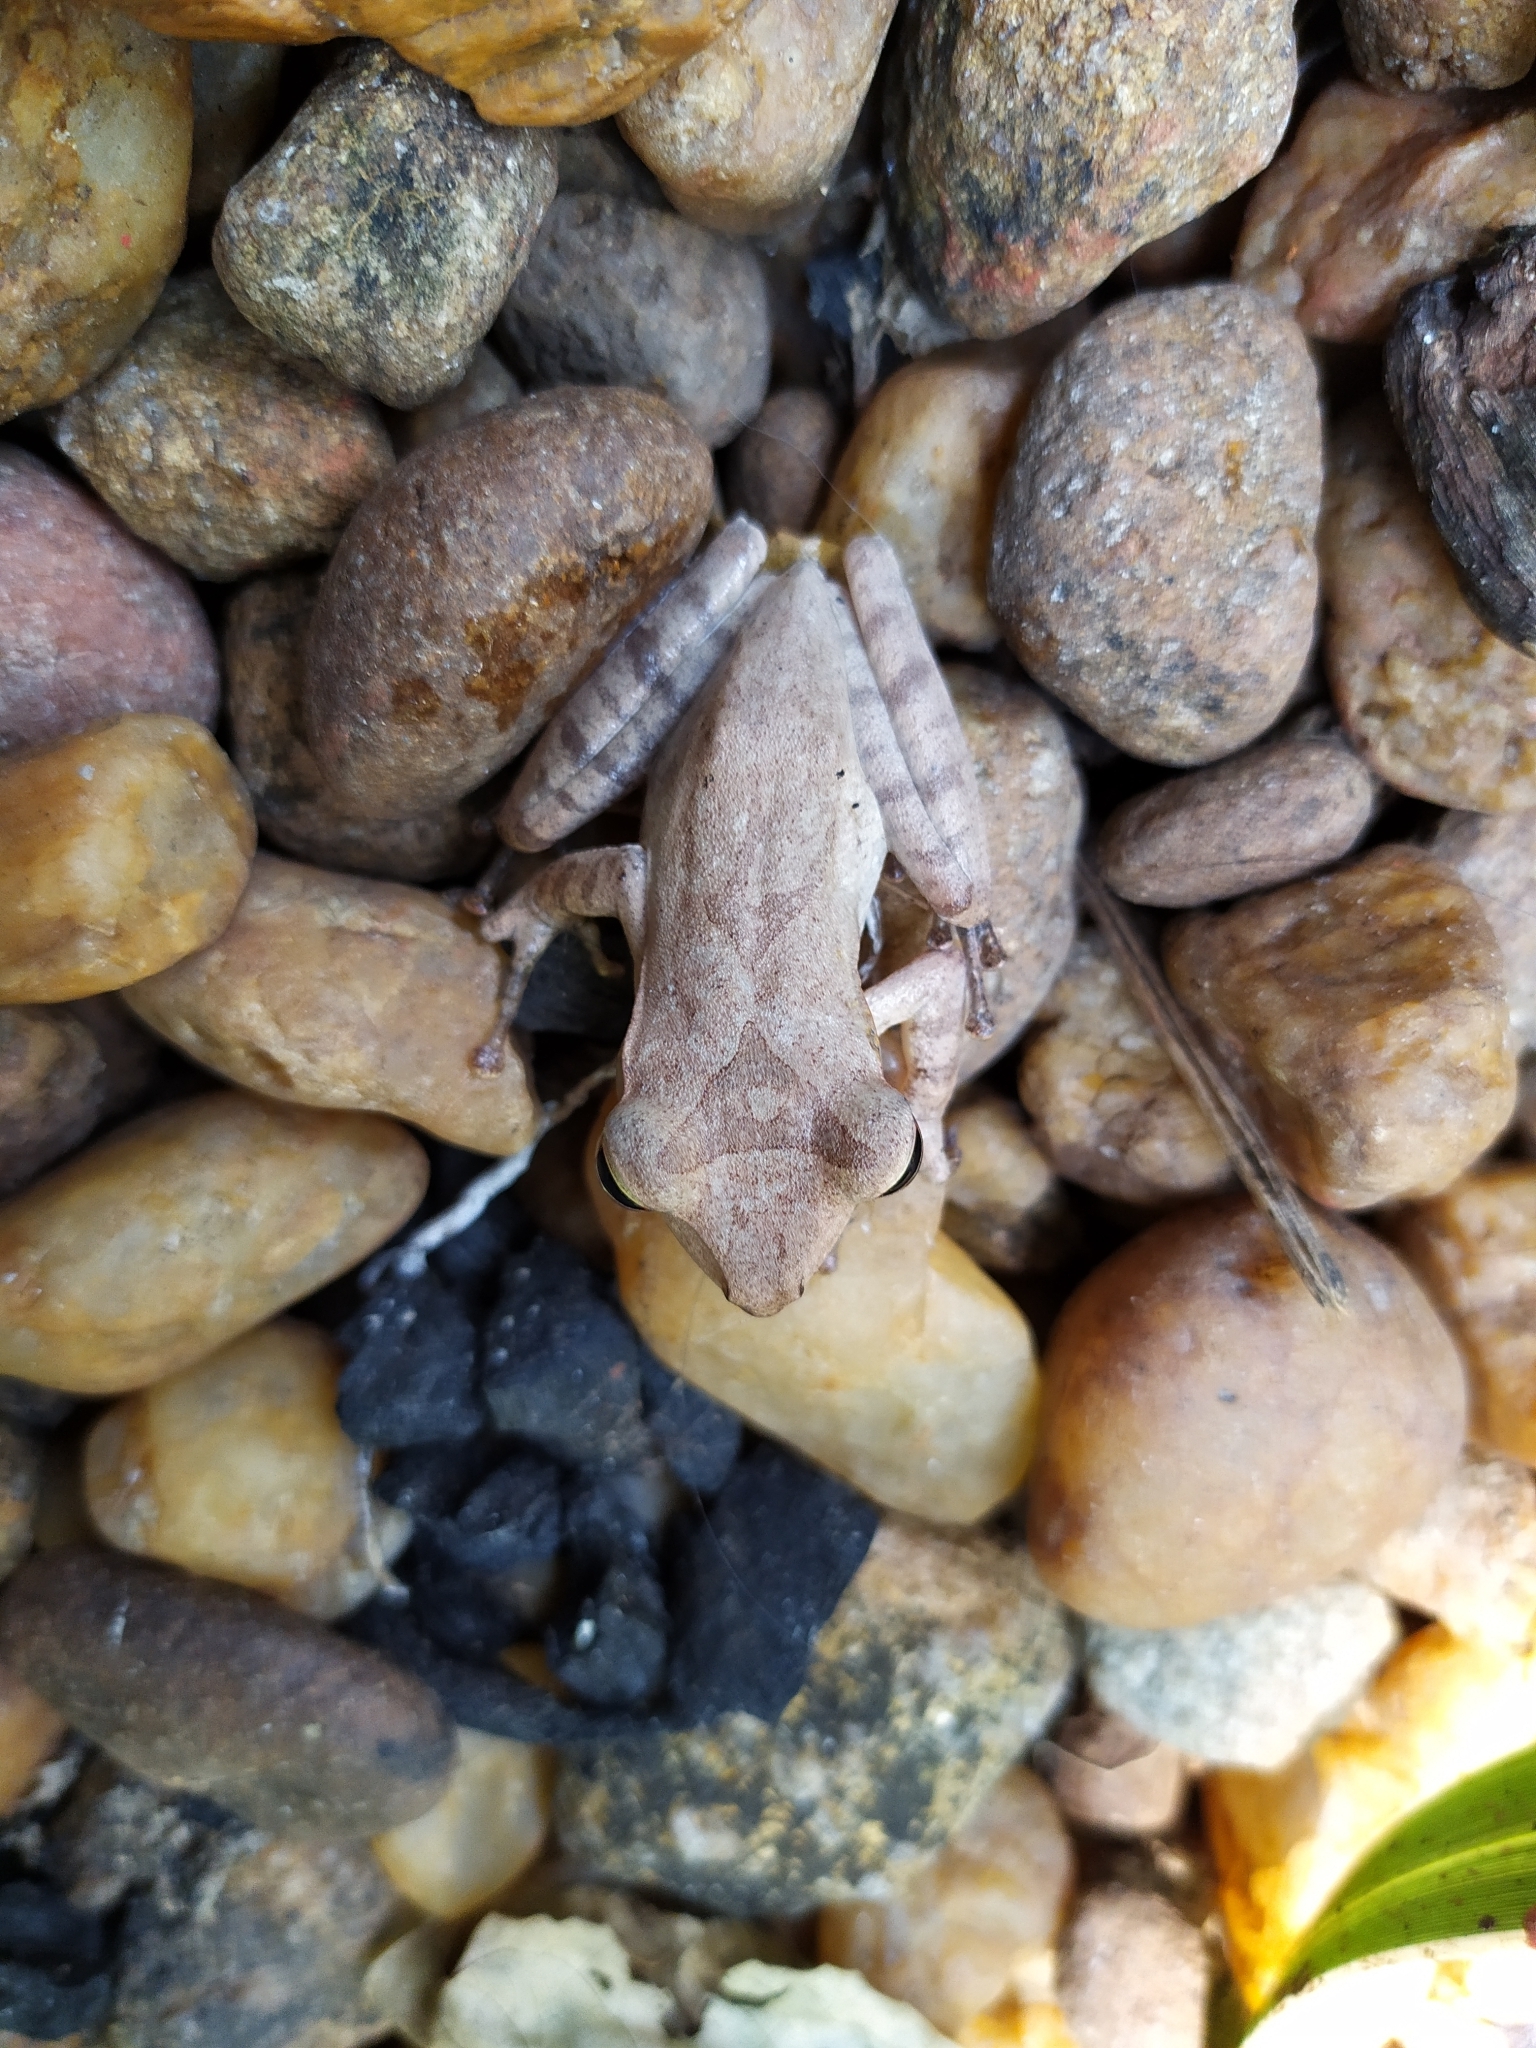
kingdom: Animalia
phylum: Chordata
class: Amphibia
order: Anura
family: Rhacophoridae
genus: Polypedates
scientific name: Polypedates occidentalis
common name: Charpa tree frog
